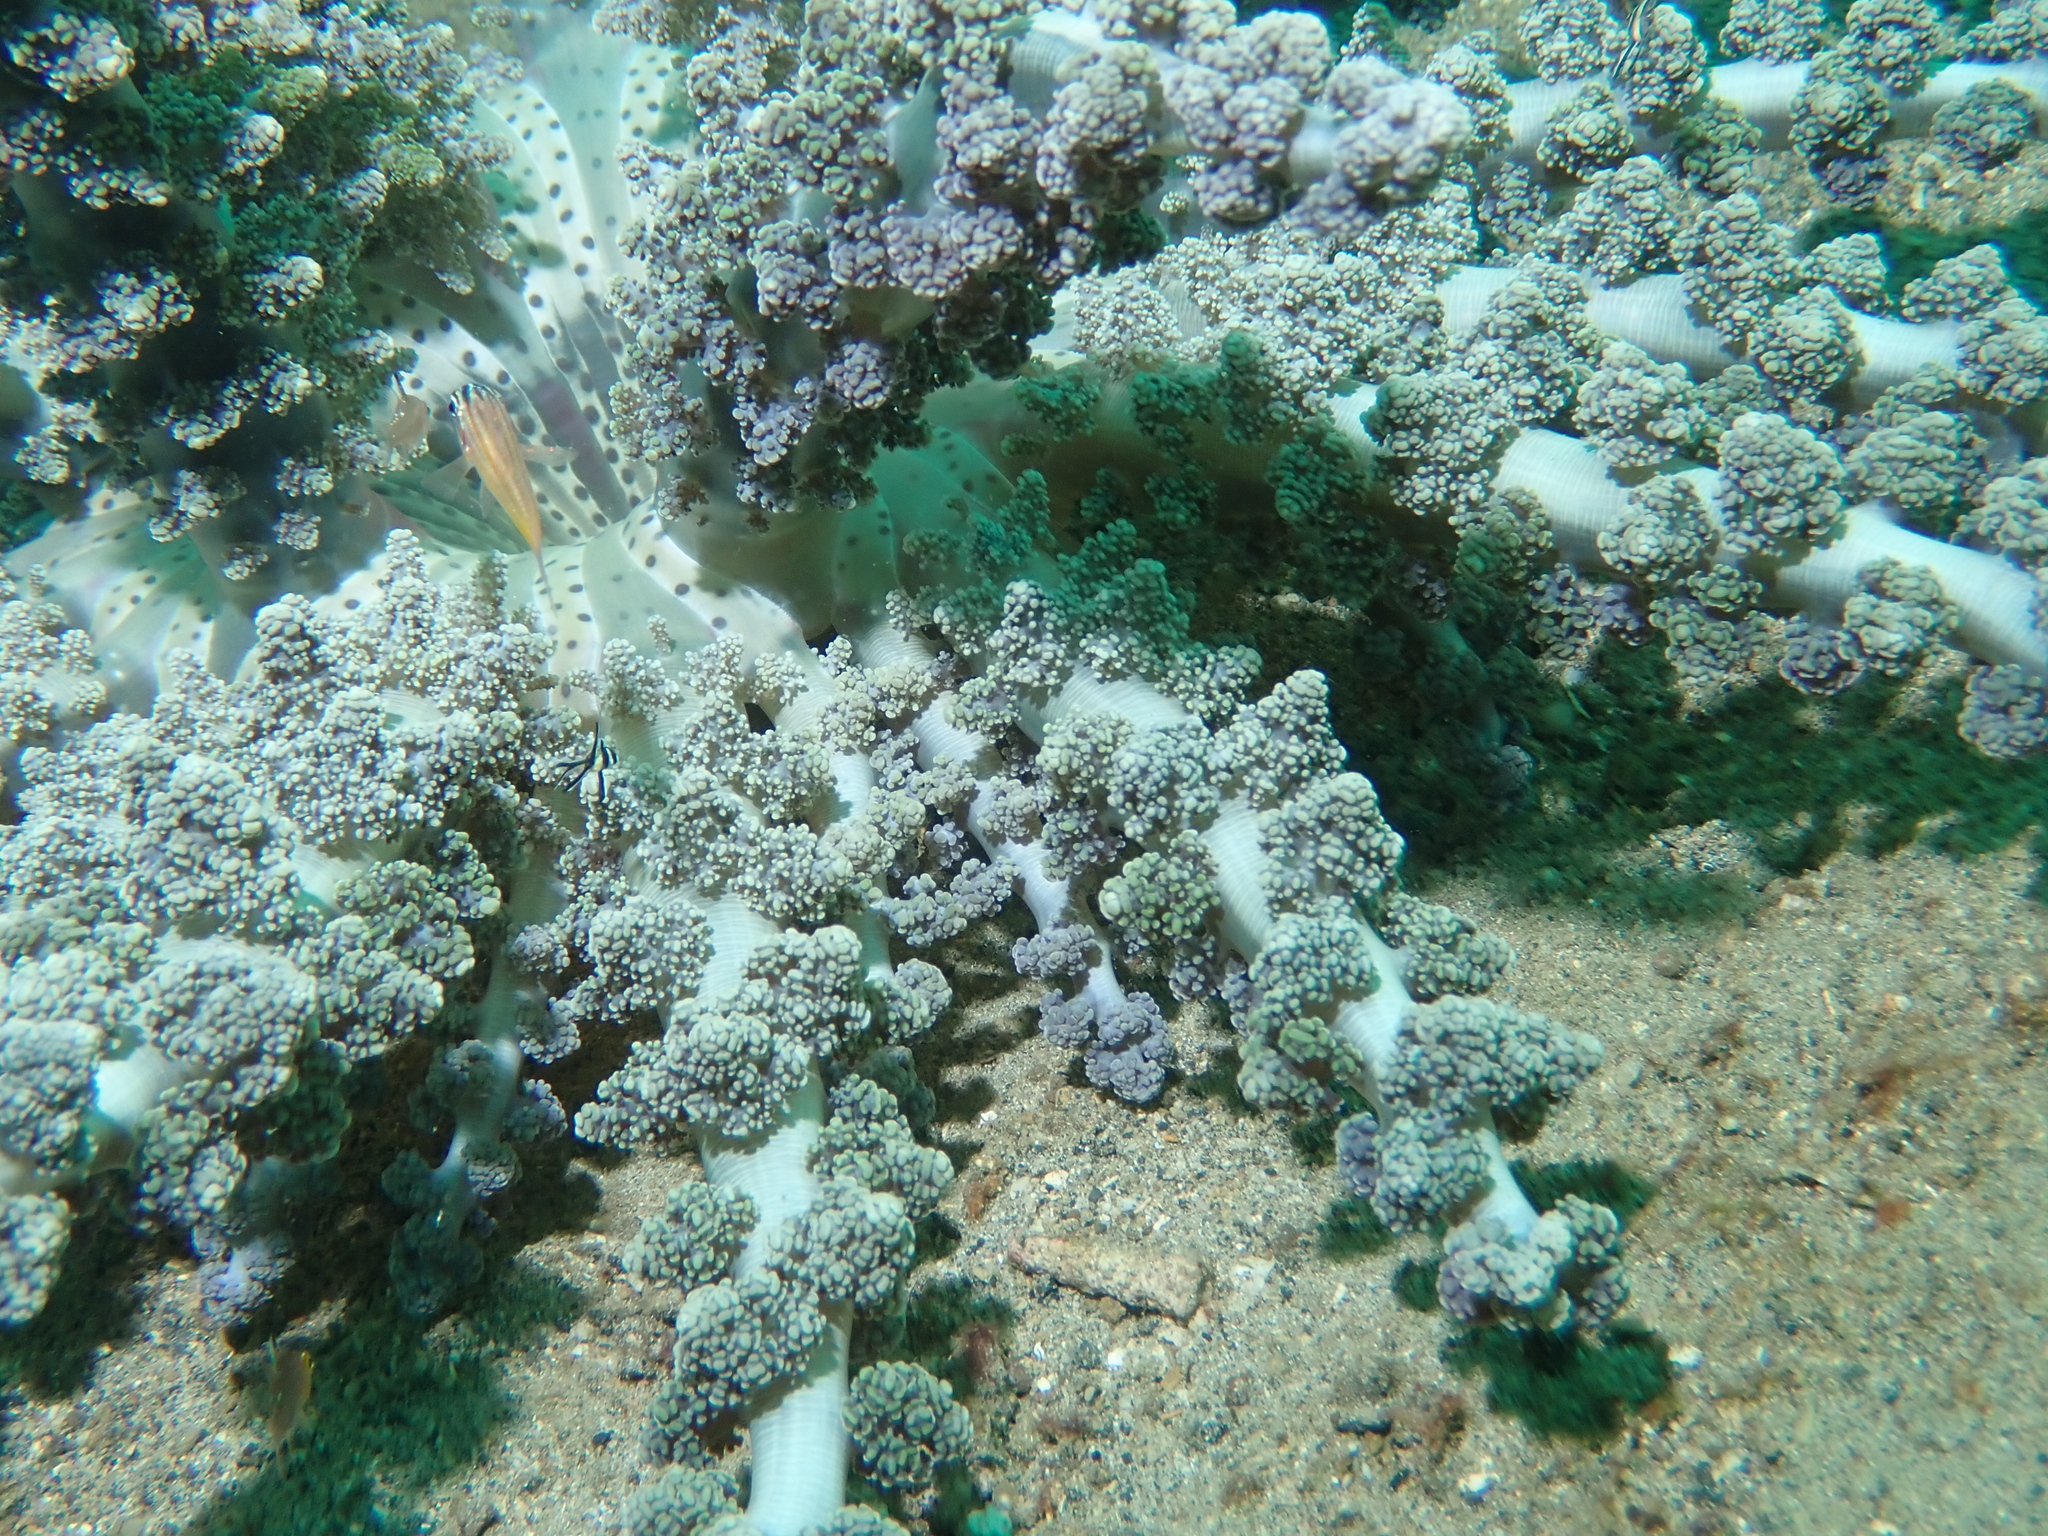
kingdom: Animalia
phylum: Cnidaria
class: Anthozoa
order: Actiniaria
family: Actinodendridae
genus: Actinodendron
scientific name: Actinodendron alcyonoideum
